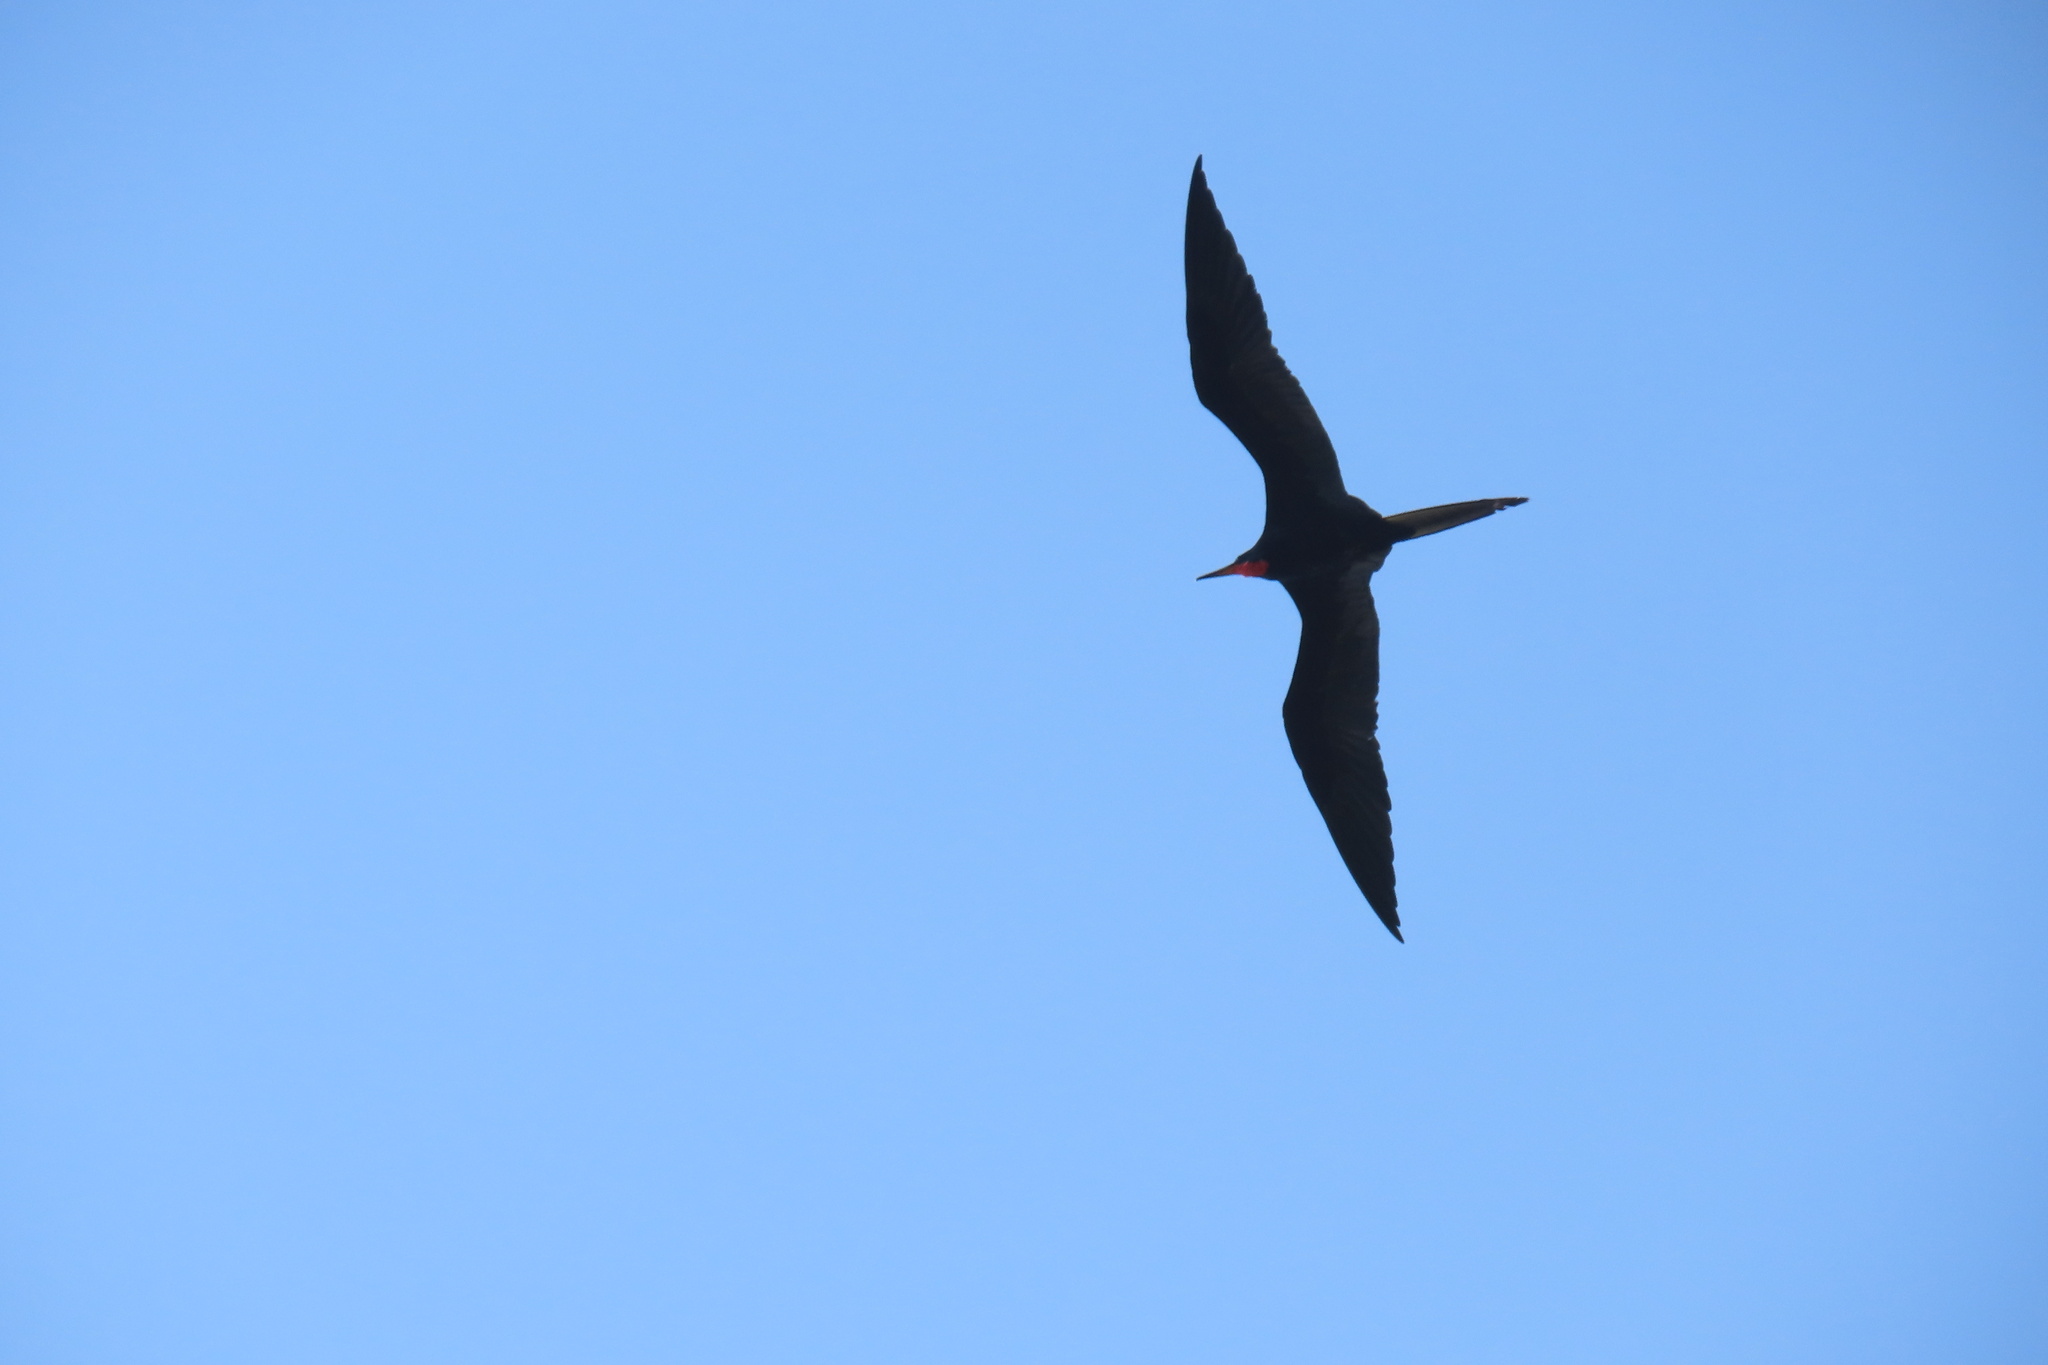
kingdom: Animalia
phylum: Chordata
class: Aves
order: Suliformes
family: Fregatidae
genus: Fregata
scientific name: Fregata magnificens
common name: Magnificent frigatebird
